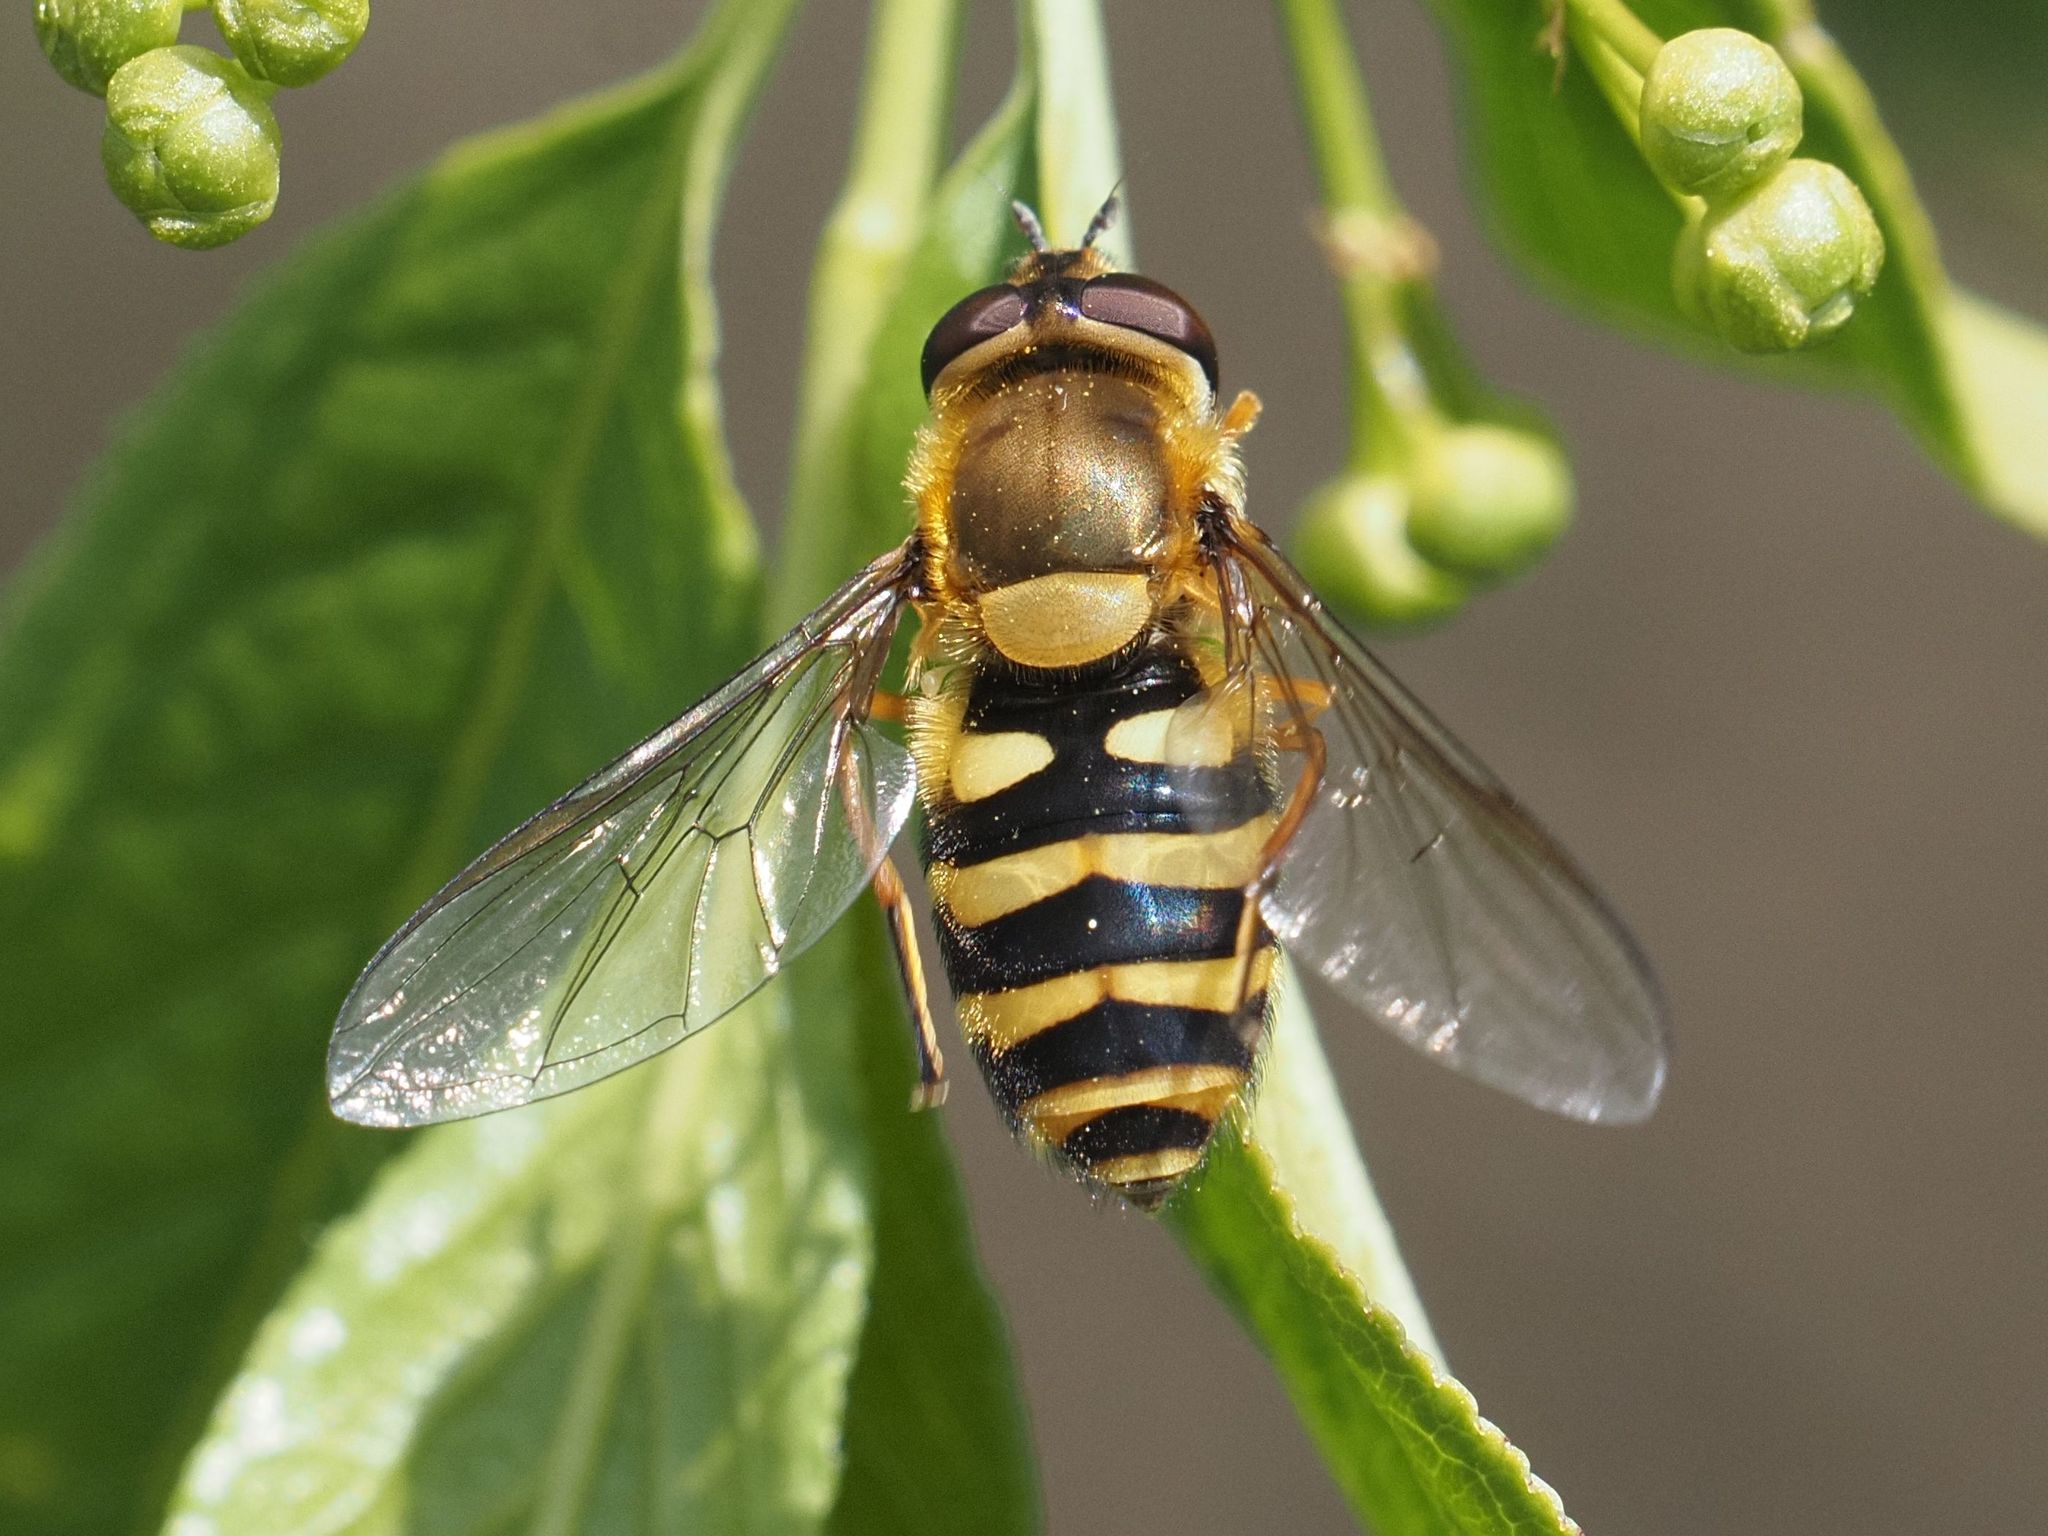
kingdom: Animalia
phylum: Arthropoda
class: Insecta
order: Diptera
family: Syrphidae
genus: Syrphus
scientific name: Syrphus
